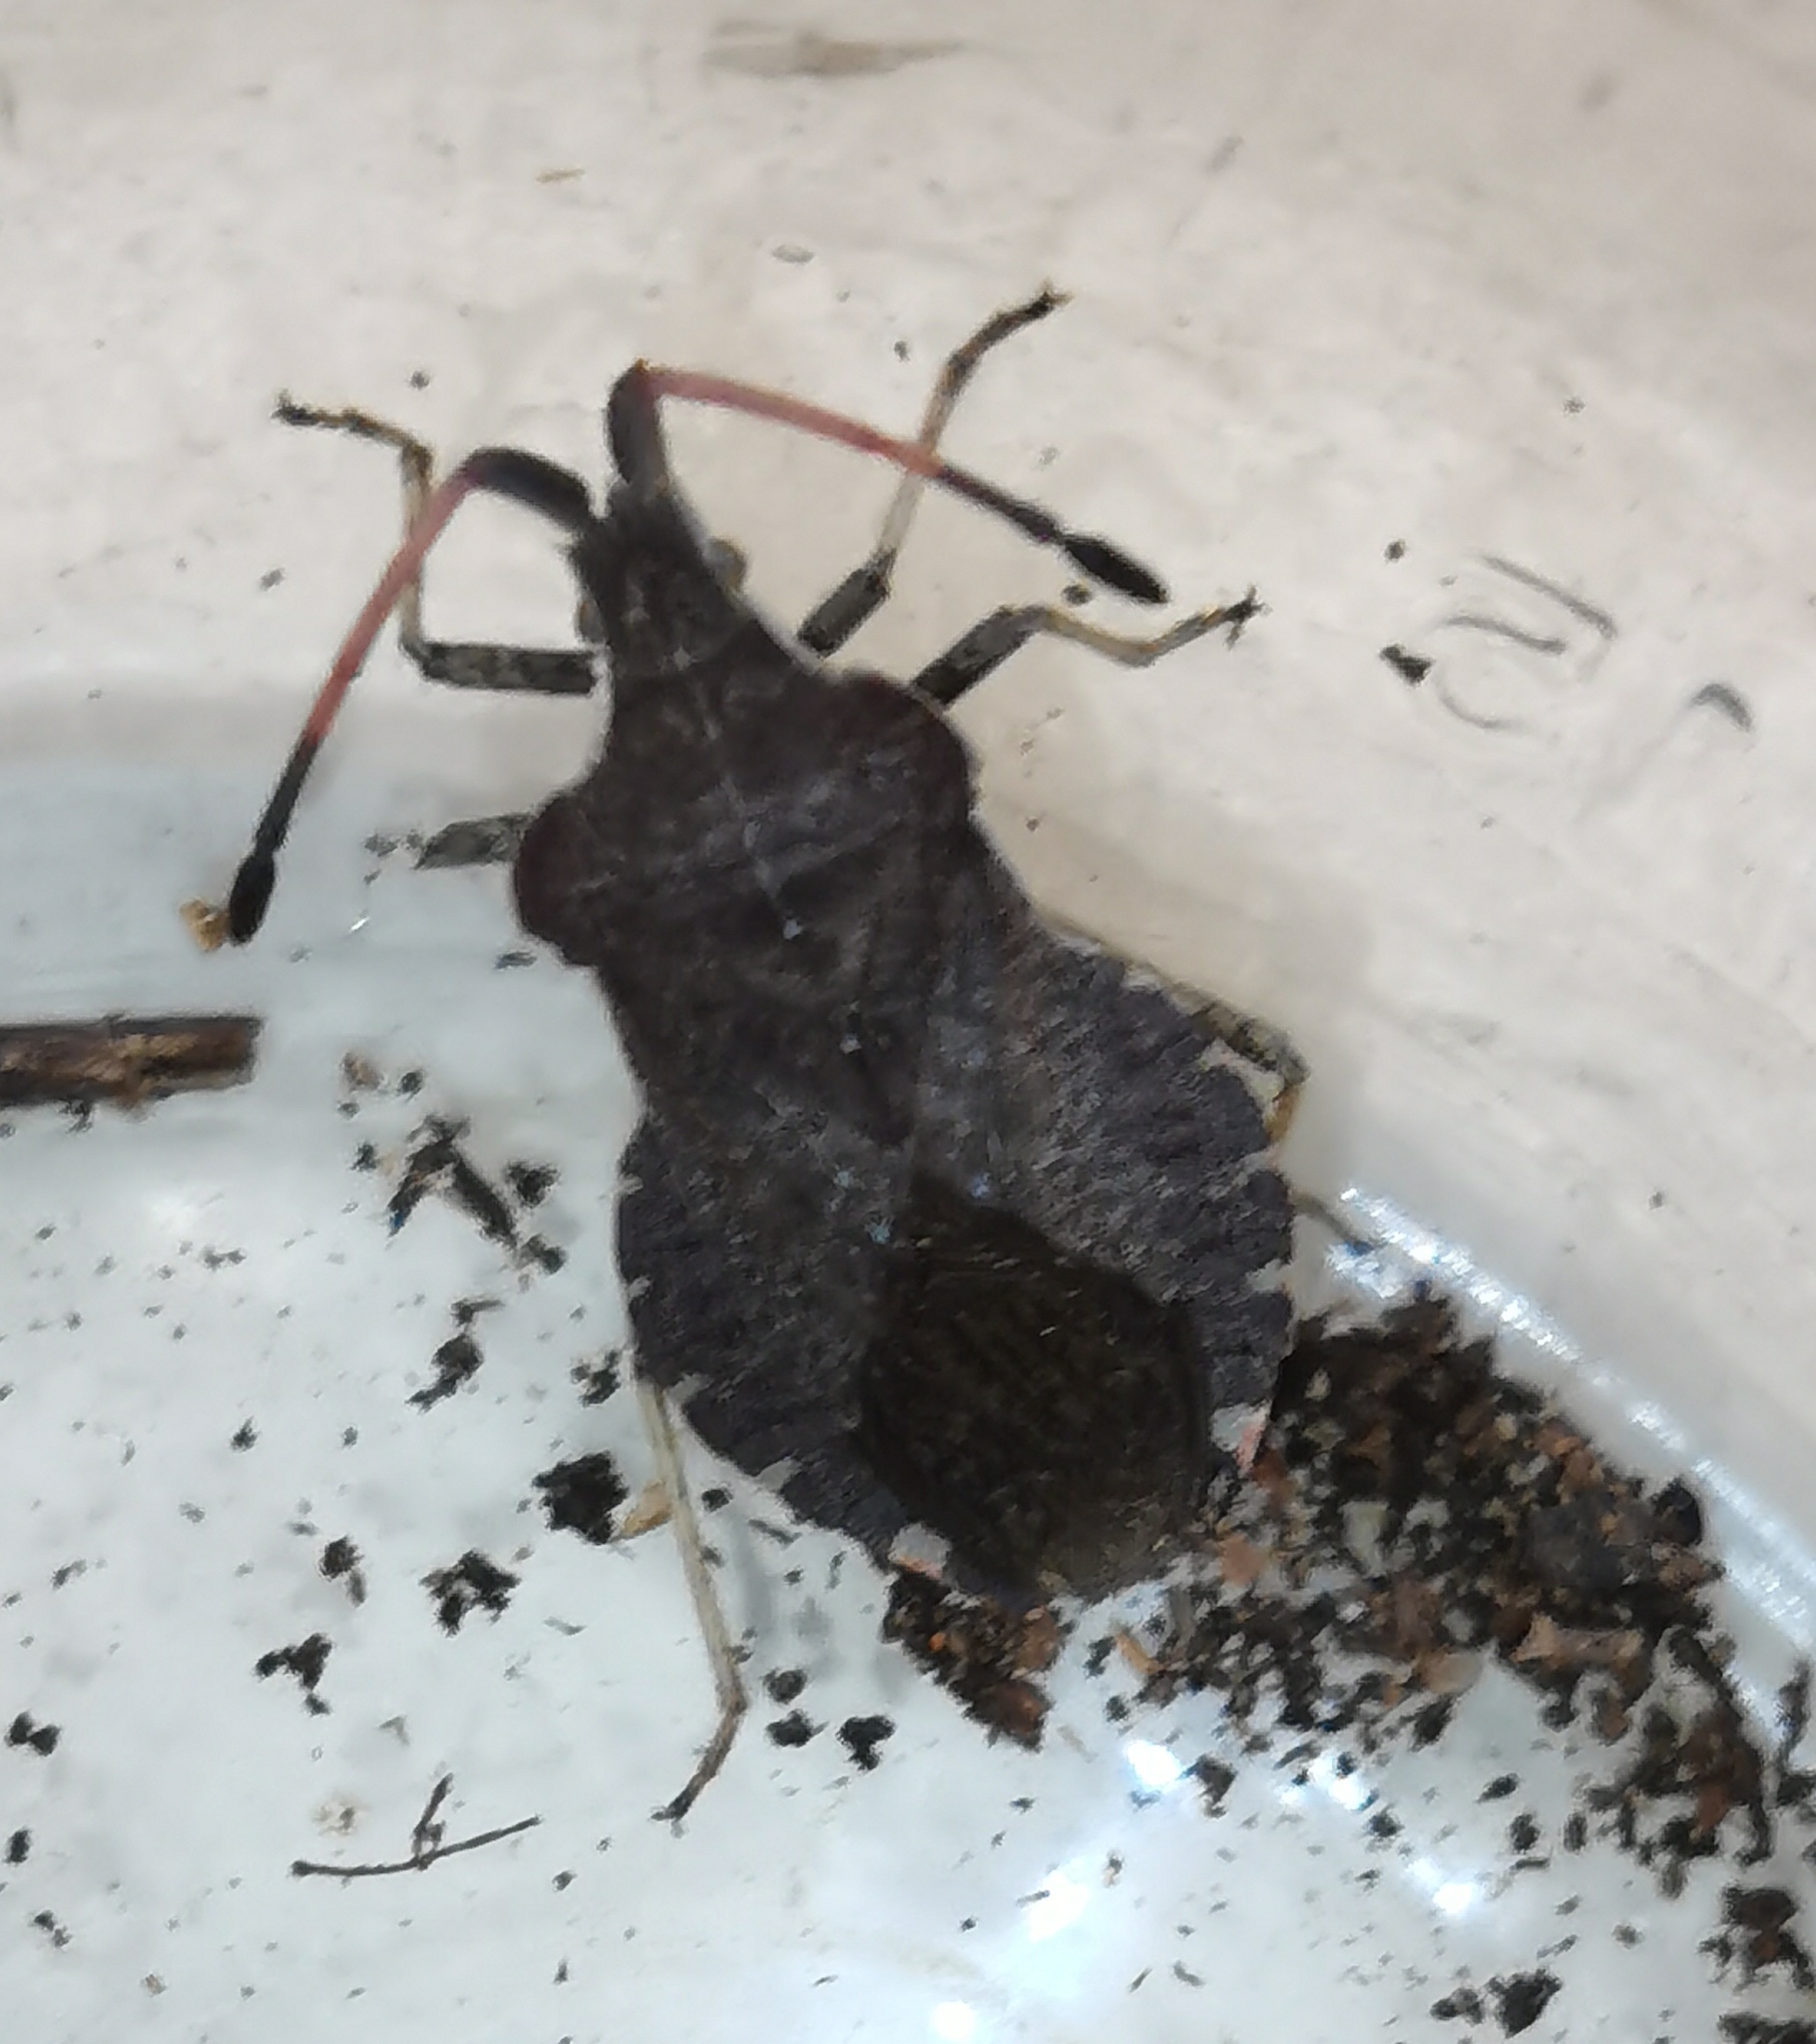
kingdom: Animalia
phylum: Arthropoda
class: Insecta
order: Hemiptera
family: Coreidae
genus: Enoplops
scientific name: Enoplops scapha
